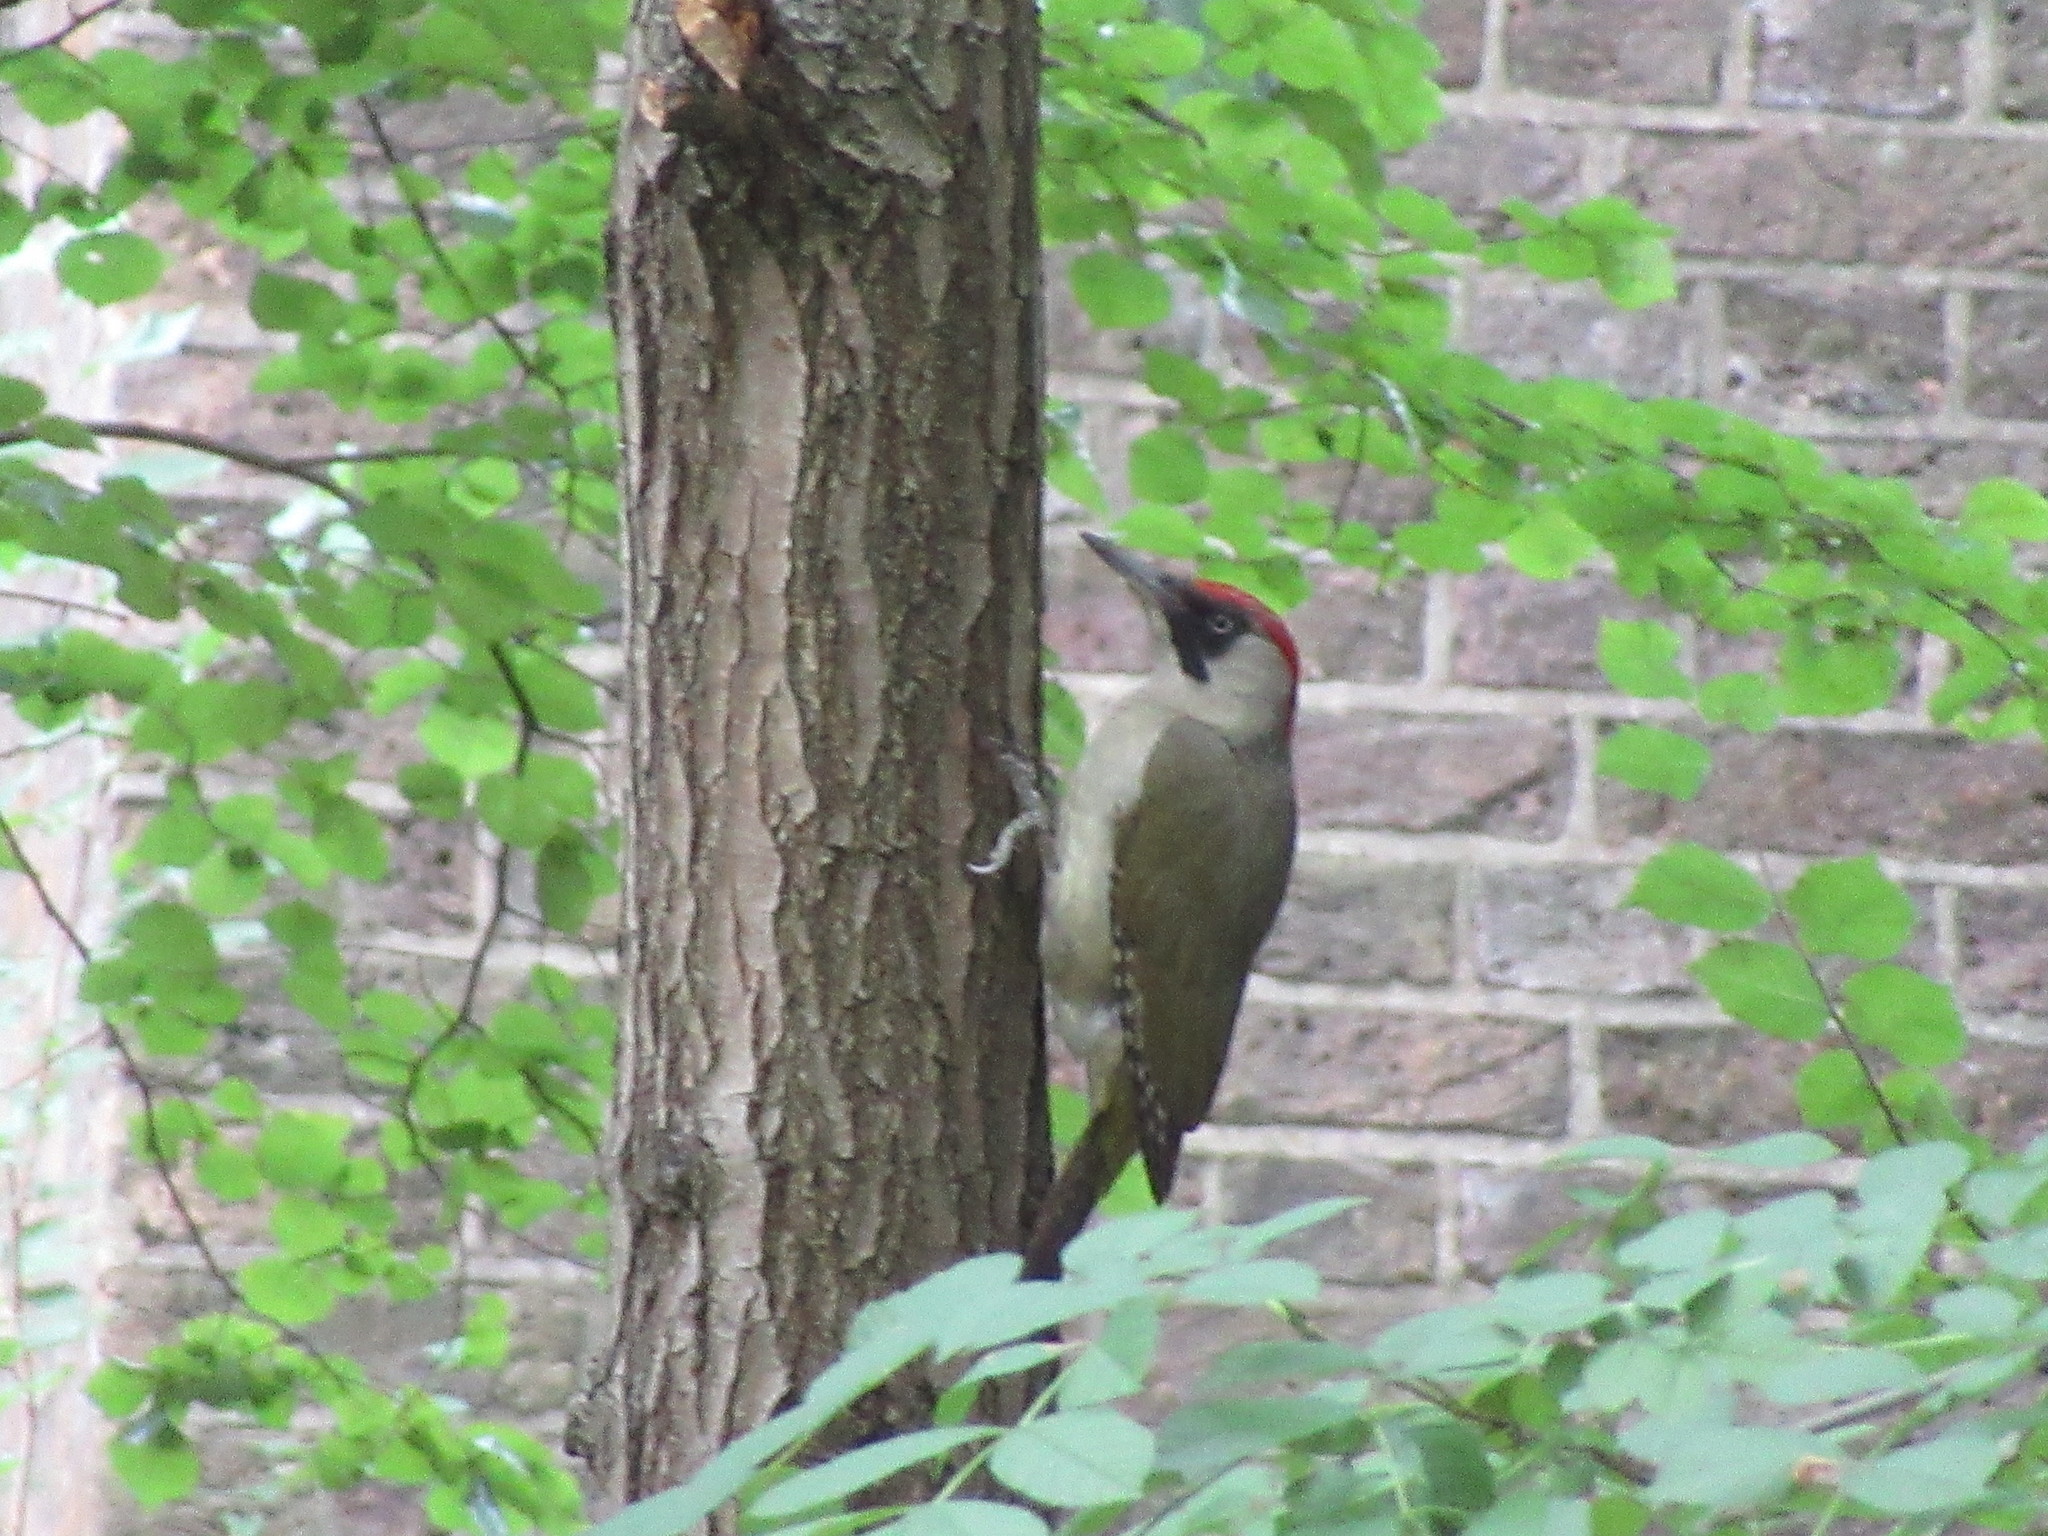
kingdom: Animalia
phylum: Chordata
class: Aves
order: Piciformes
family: Picidae
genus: Picus
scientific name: Picus viridis
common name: European green woodpecker
